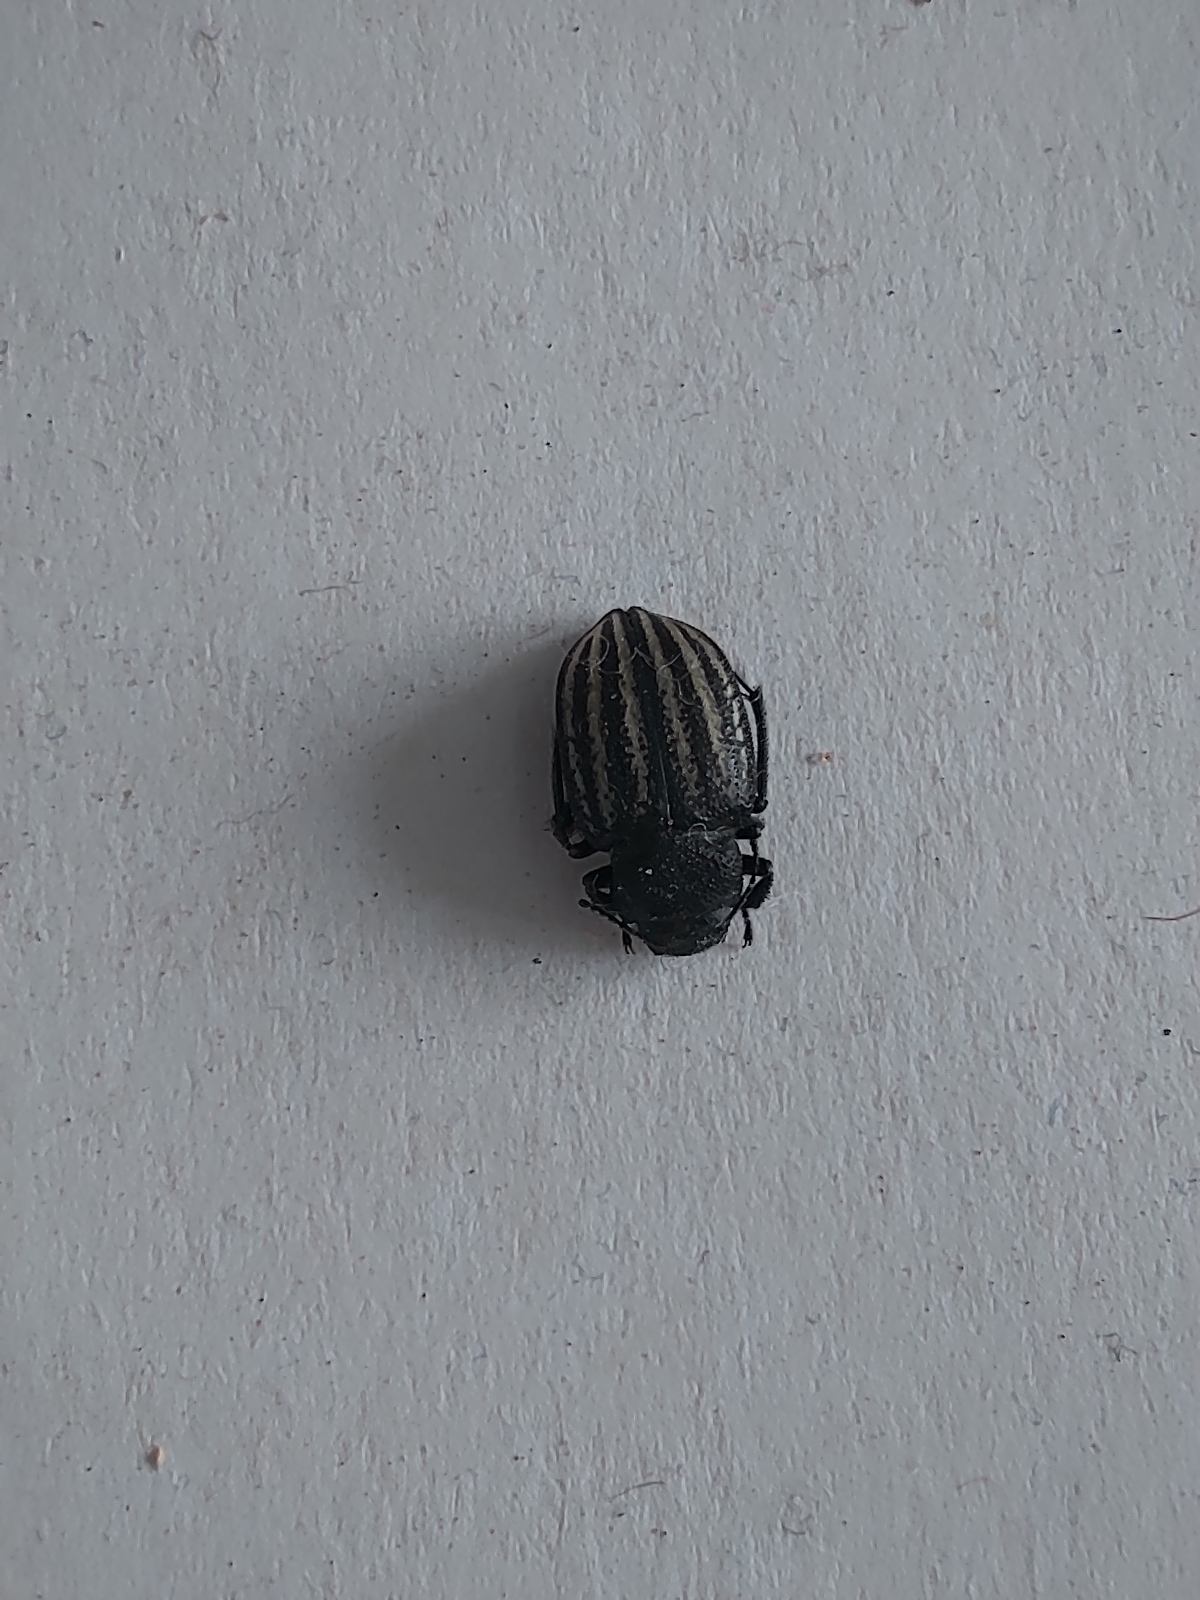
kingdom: Animalia
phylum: Arthropoda
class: Insecta
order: Coleoptera
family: Tenebrionidae
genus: Platyope
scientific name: Platyope leucogramma
